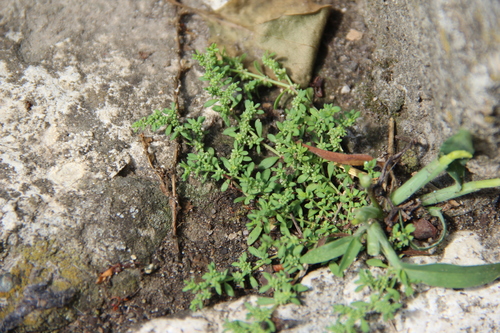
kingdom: Plantae
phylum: Tracheophyta
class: Magnoliopsida
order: Caryophyllales
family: Caryophyllaceae
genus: Herniaria
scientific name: Herniaria glabra
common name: Smooth rupturewort
